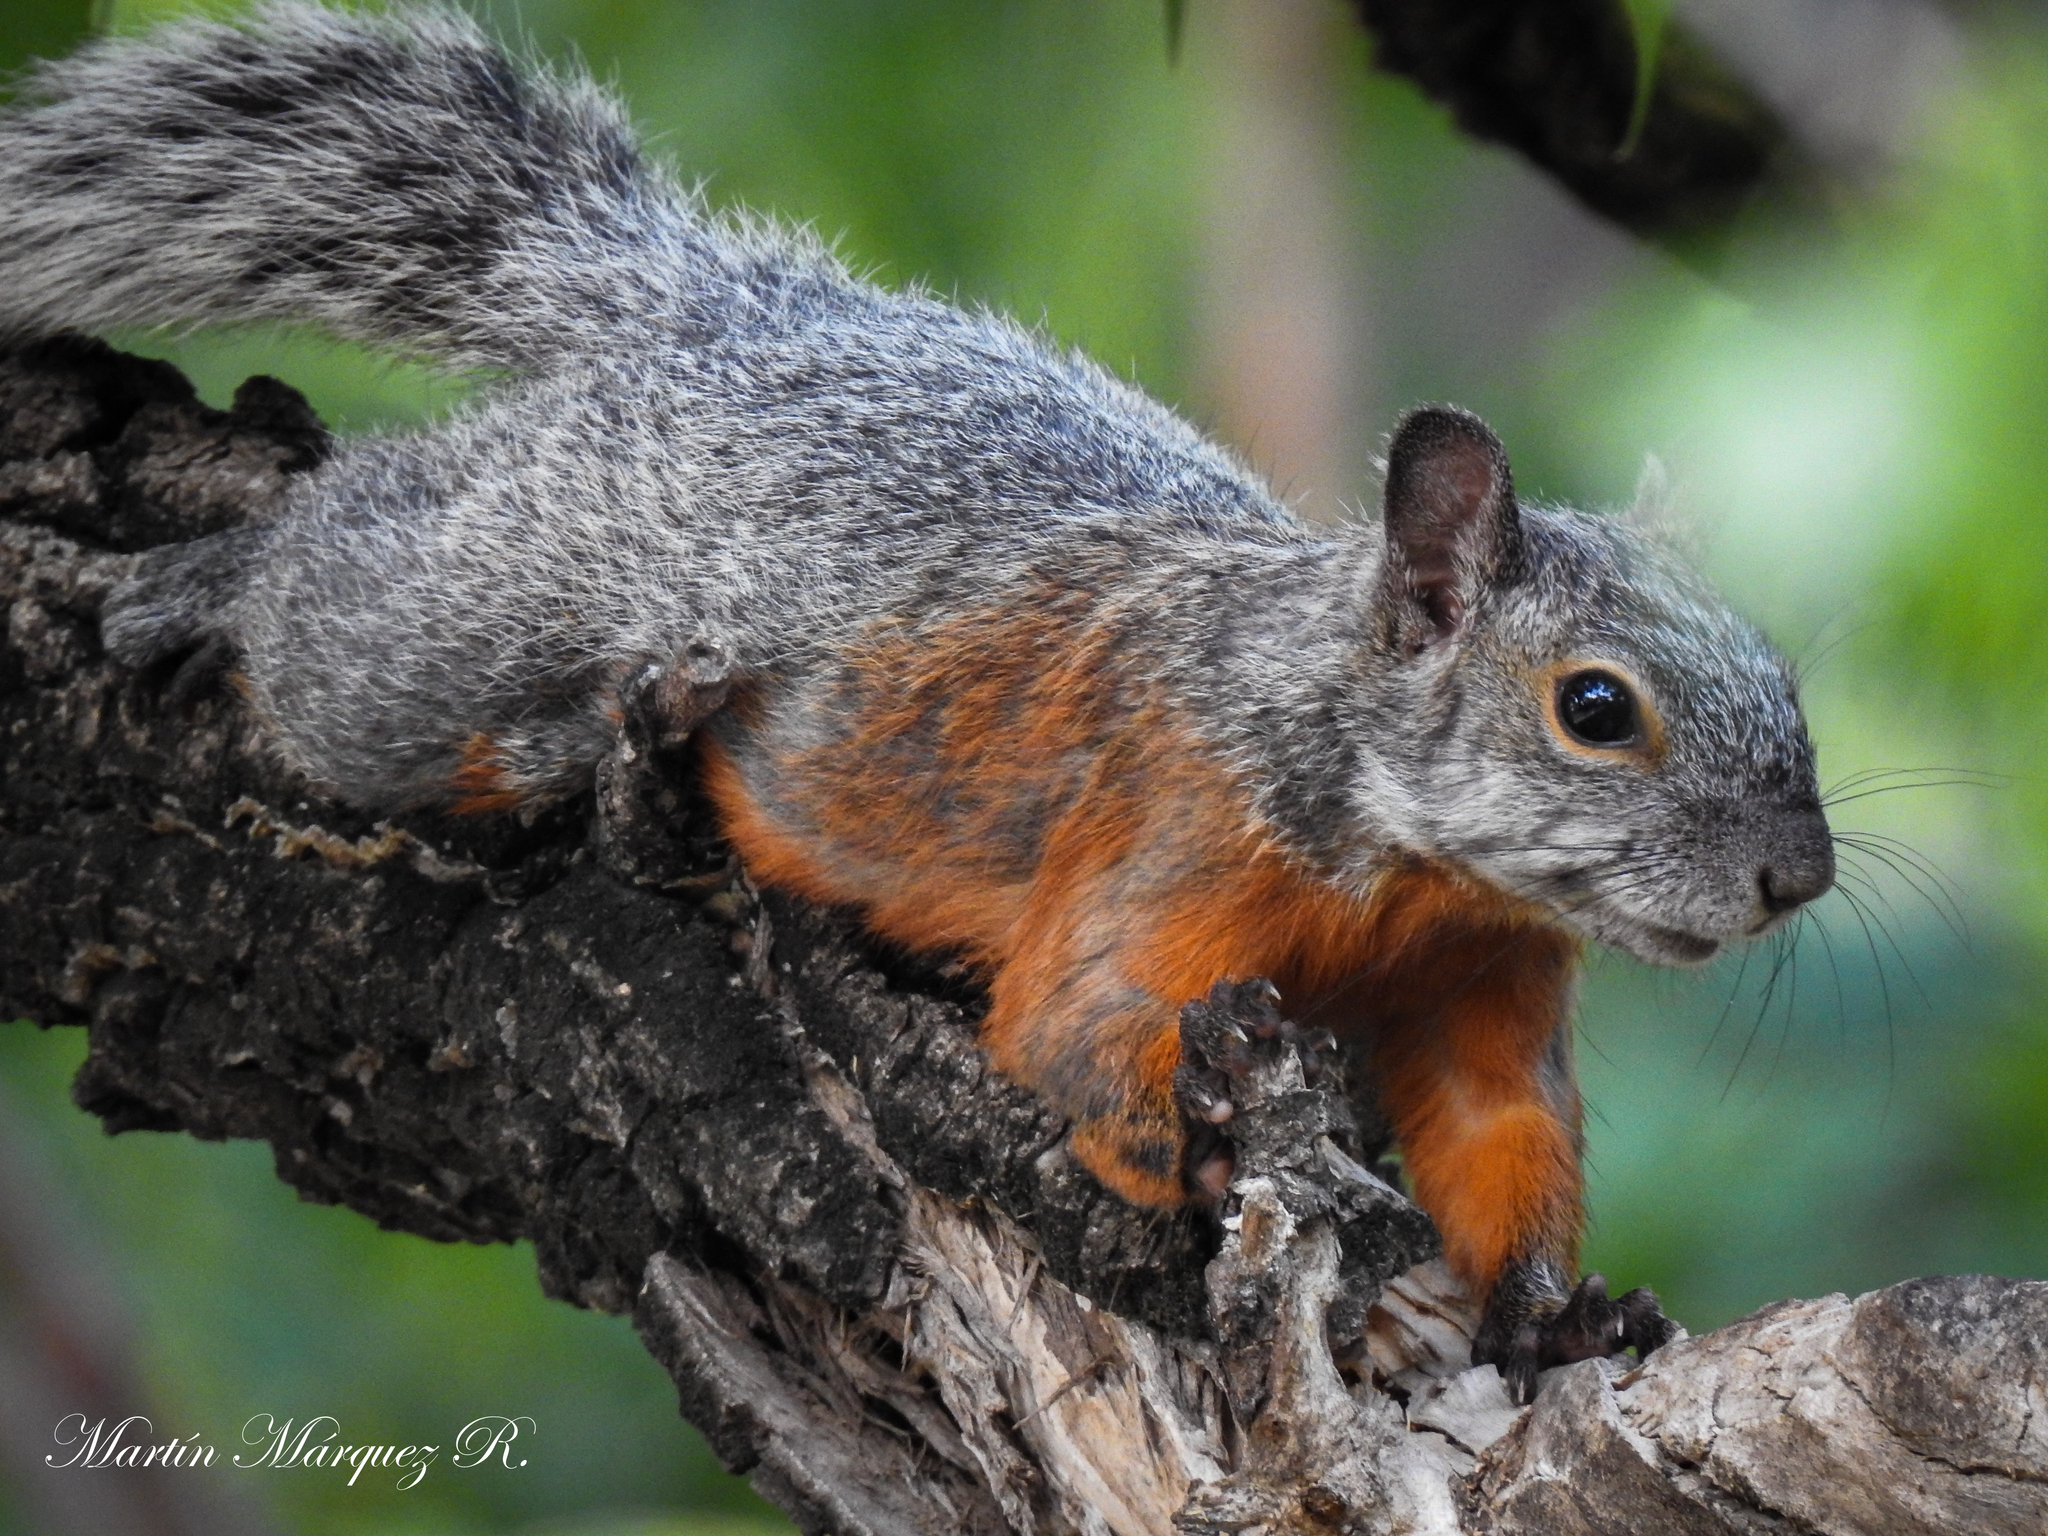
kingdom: Animalia
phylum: Chordata
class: Mammalia
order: Rodentia
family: Sciuridae
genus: Sciurus
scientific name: Sciurus aureogaster
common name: Red-bellied squirrel
